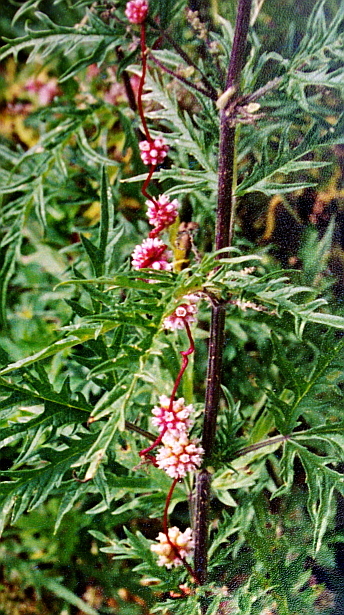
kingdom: Plantae
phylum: Tracheophyta
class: Magnoliopsida
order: Solanales
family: Convolvulaceae
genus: Cuscuta
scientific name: Cuscuta europaea
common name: Greater dodder
